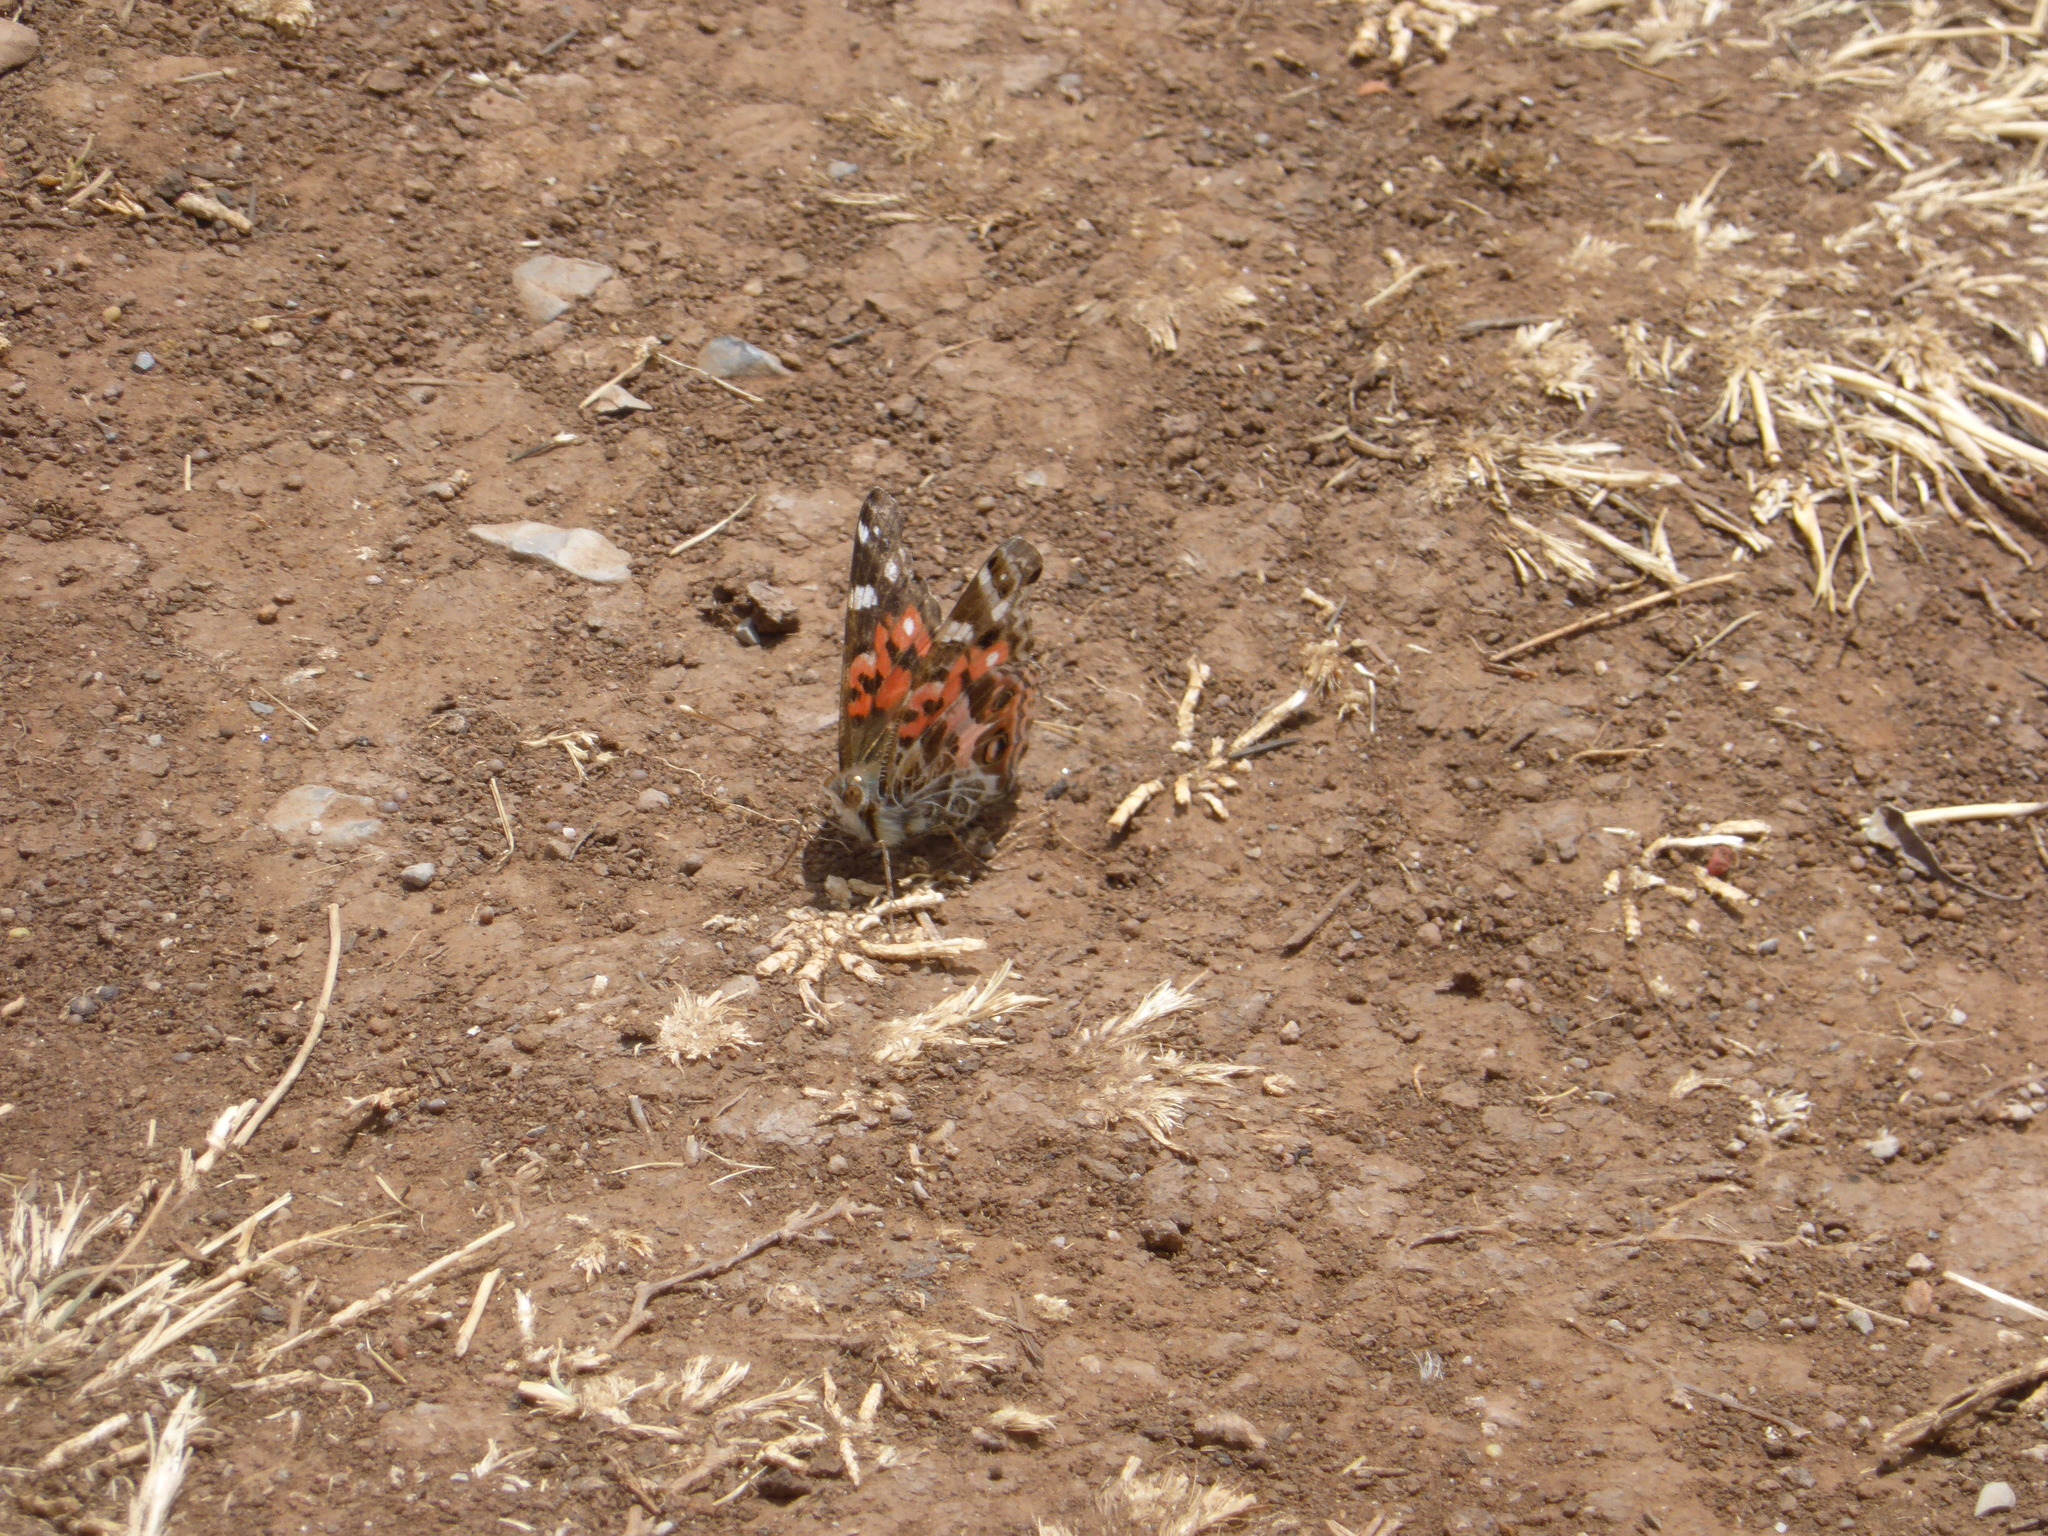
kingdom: Animalia
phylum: Arthropoda
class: Insecta
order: Lepidoptera
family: Nymphalidae
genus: Vanessa
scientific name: Vanessa braziliensis
